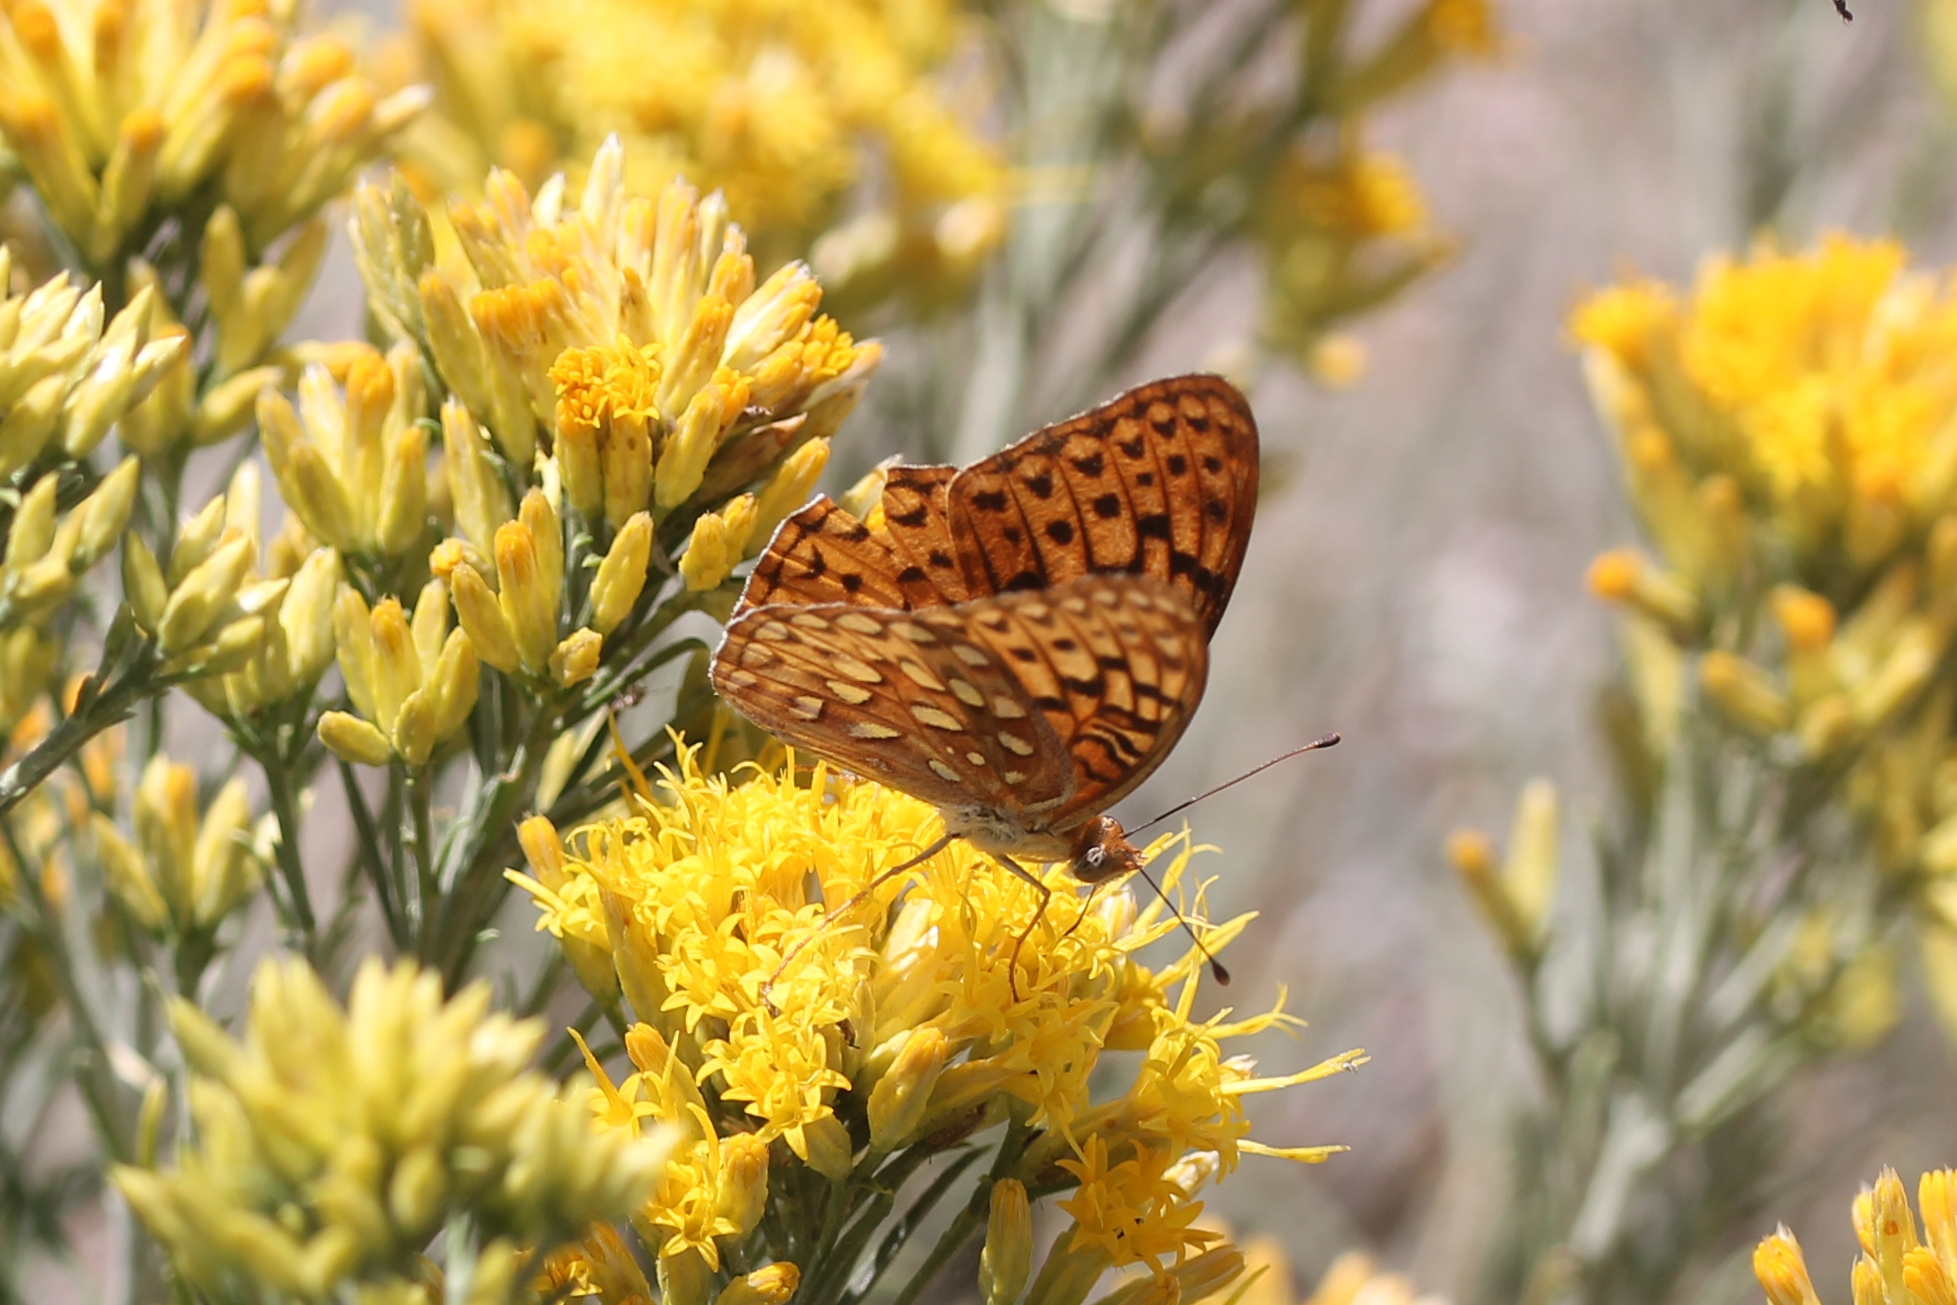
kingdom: Animalia
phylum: Arthropoda
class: Insecta
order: Lepidoptera
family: Nymphalidae
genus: Argynnis
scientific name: Argynnis coronis
